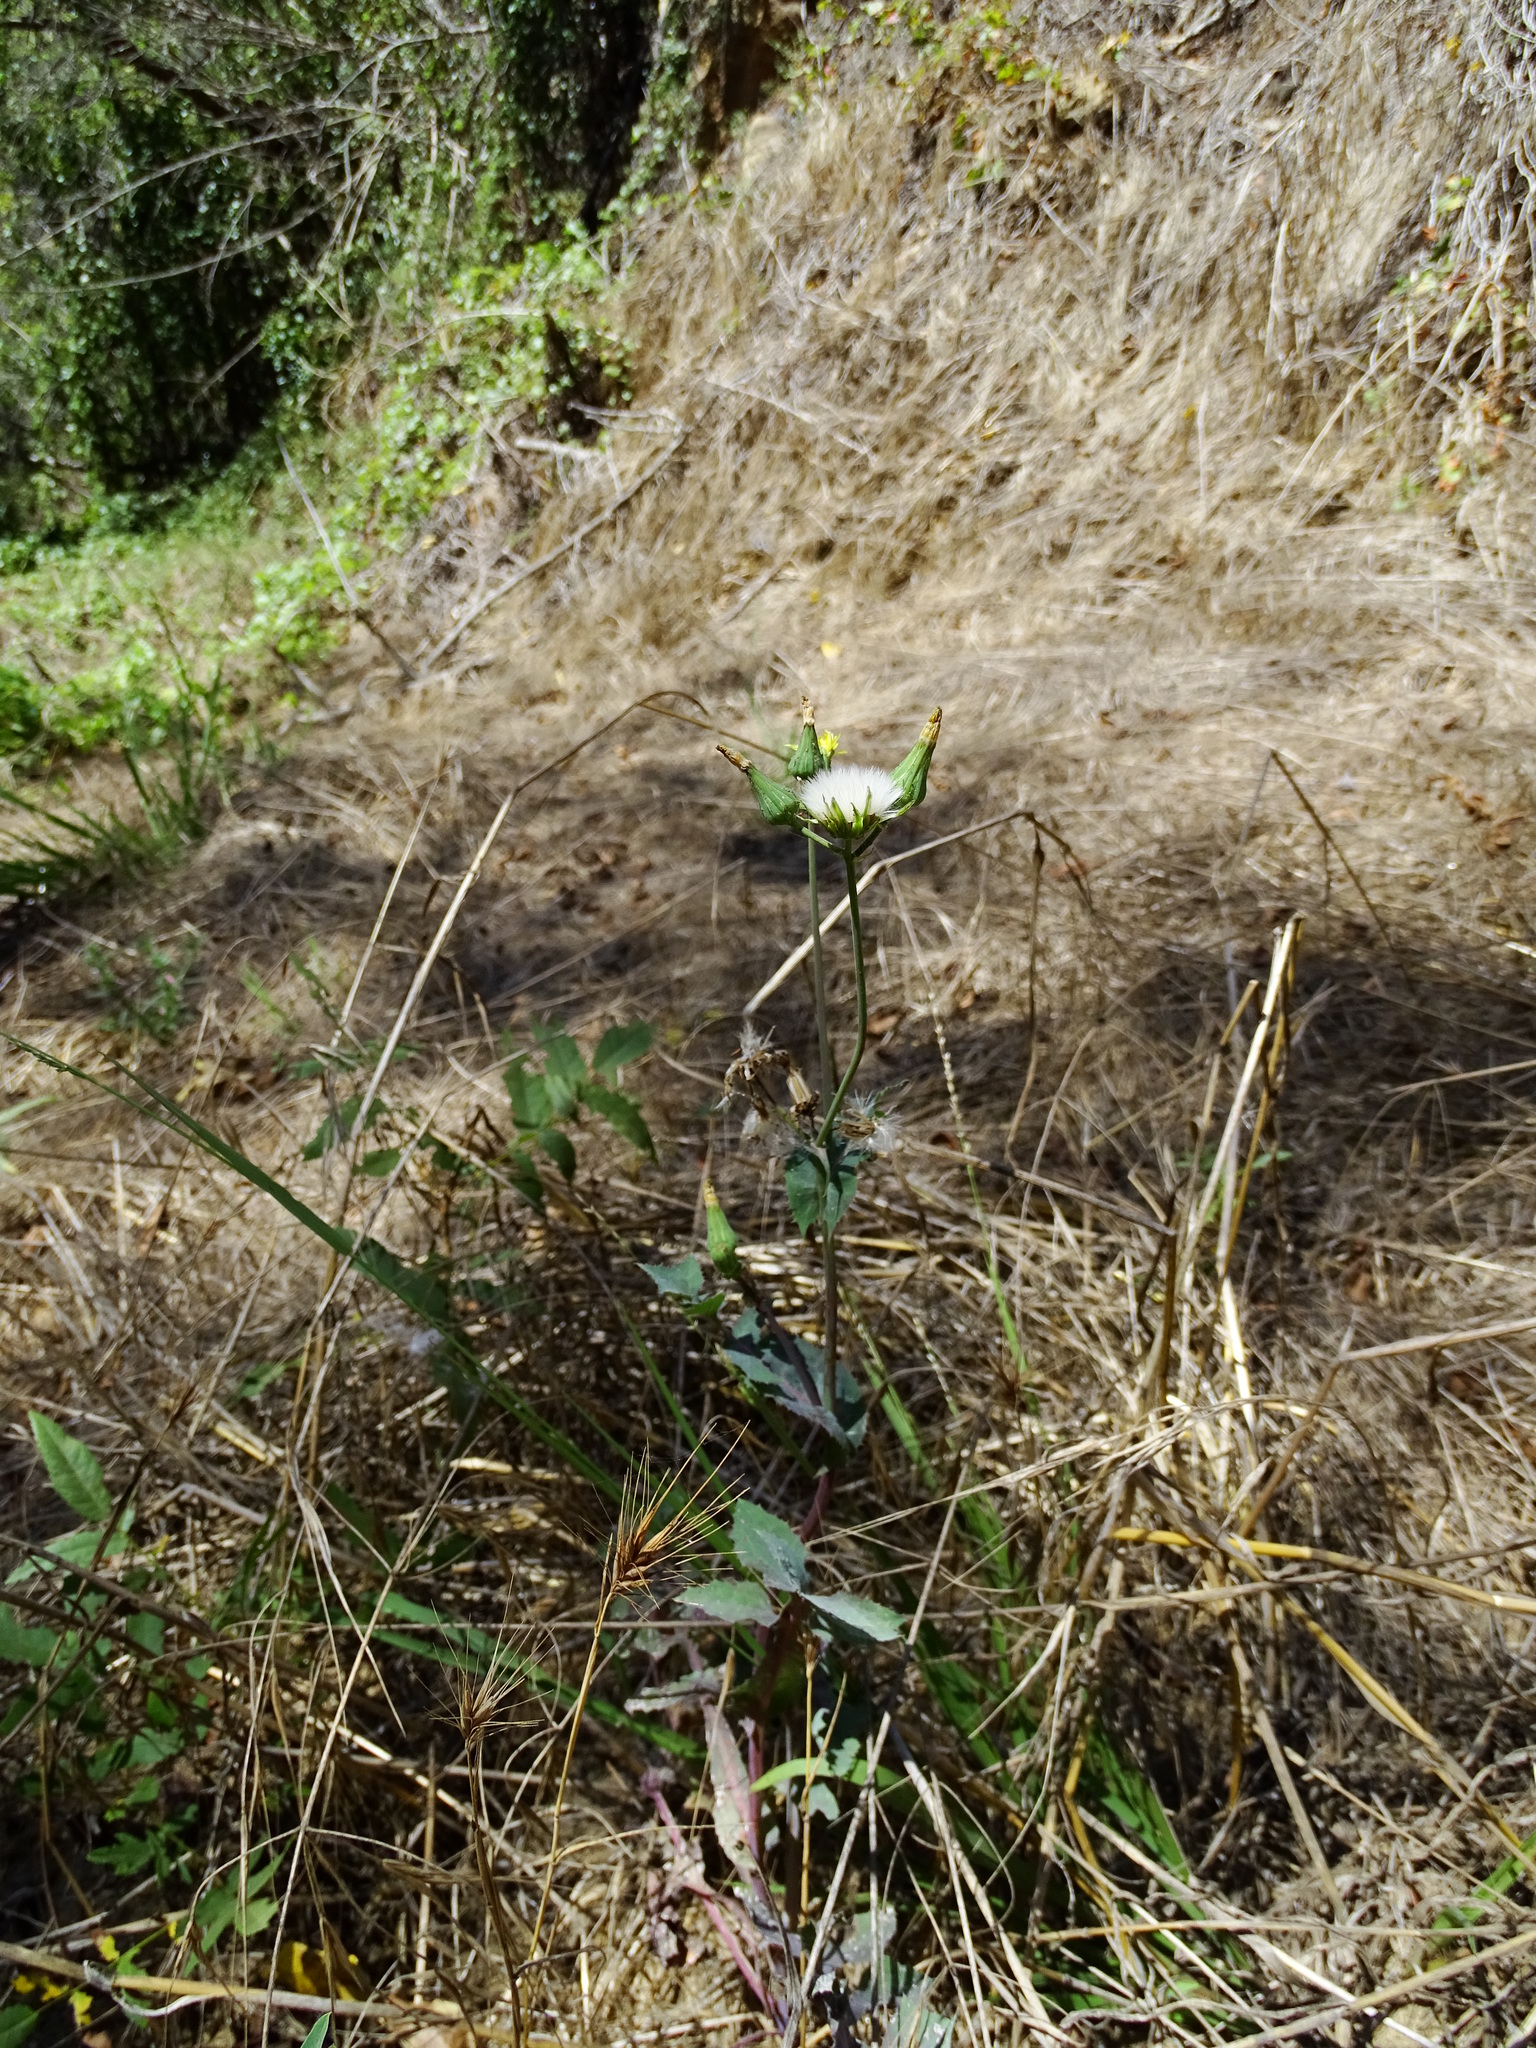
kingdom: Plantae
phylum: Tracheophyta
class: Magnoliopsida
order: Asterales
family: Asteraceae
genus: Sonchus
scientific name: Sonchus oleraceus
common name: Common sowthistle
